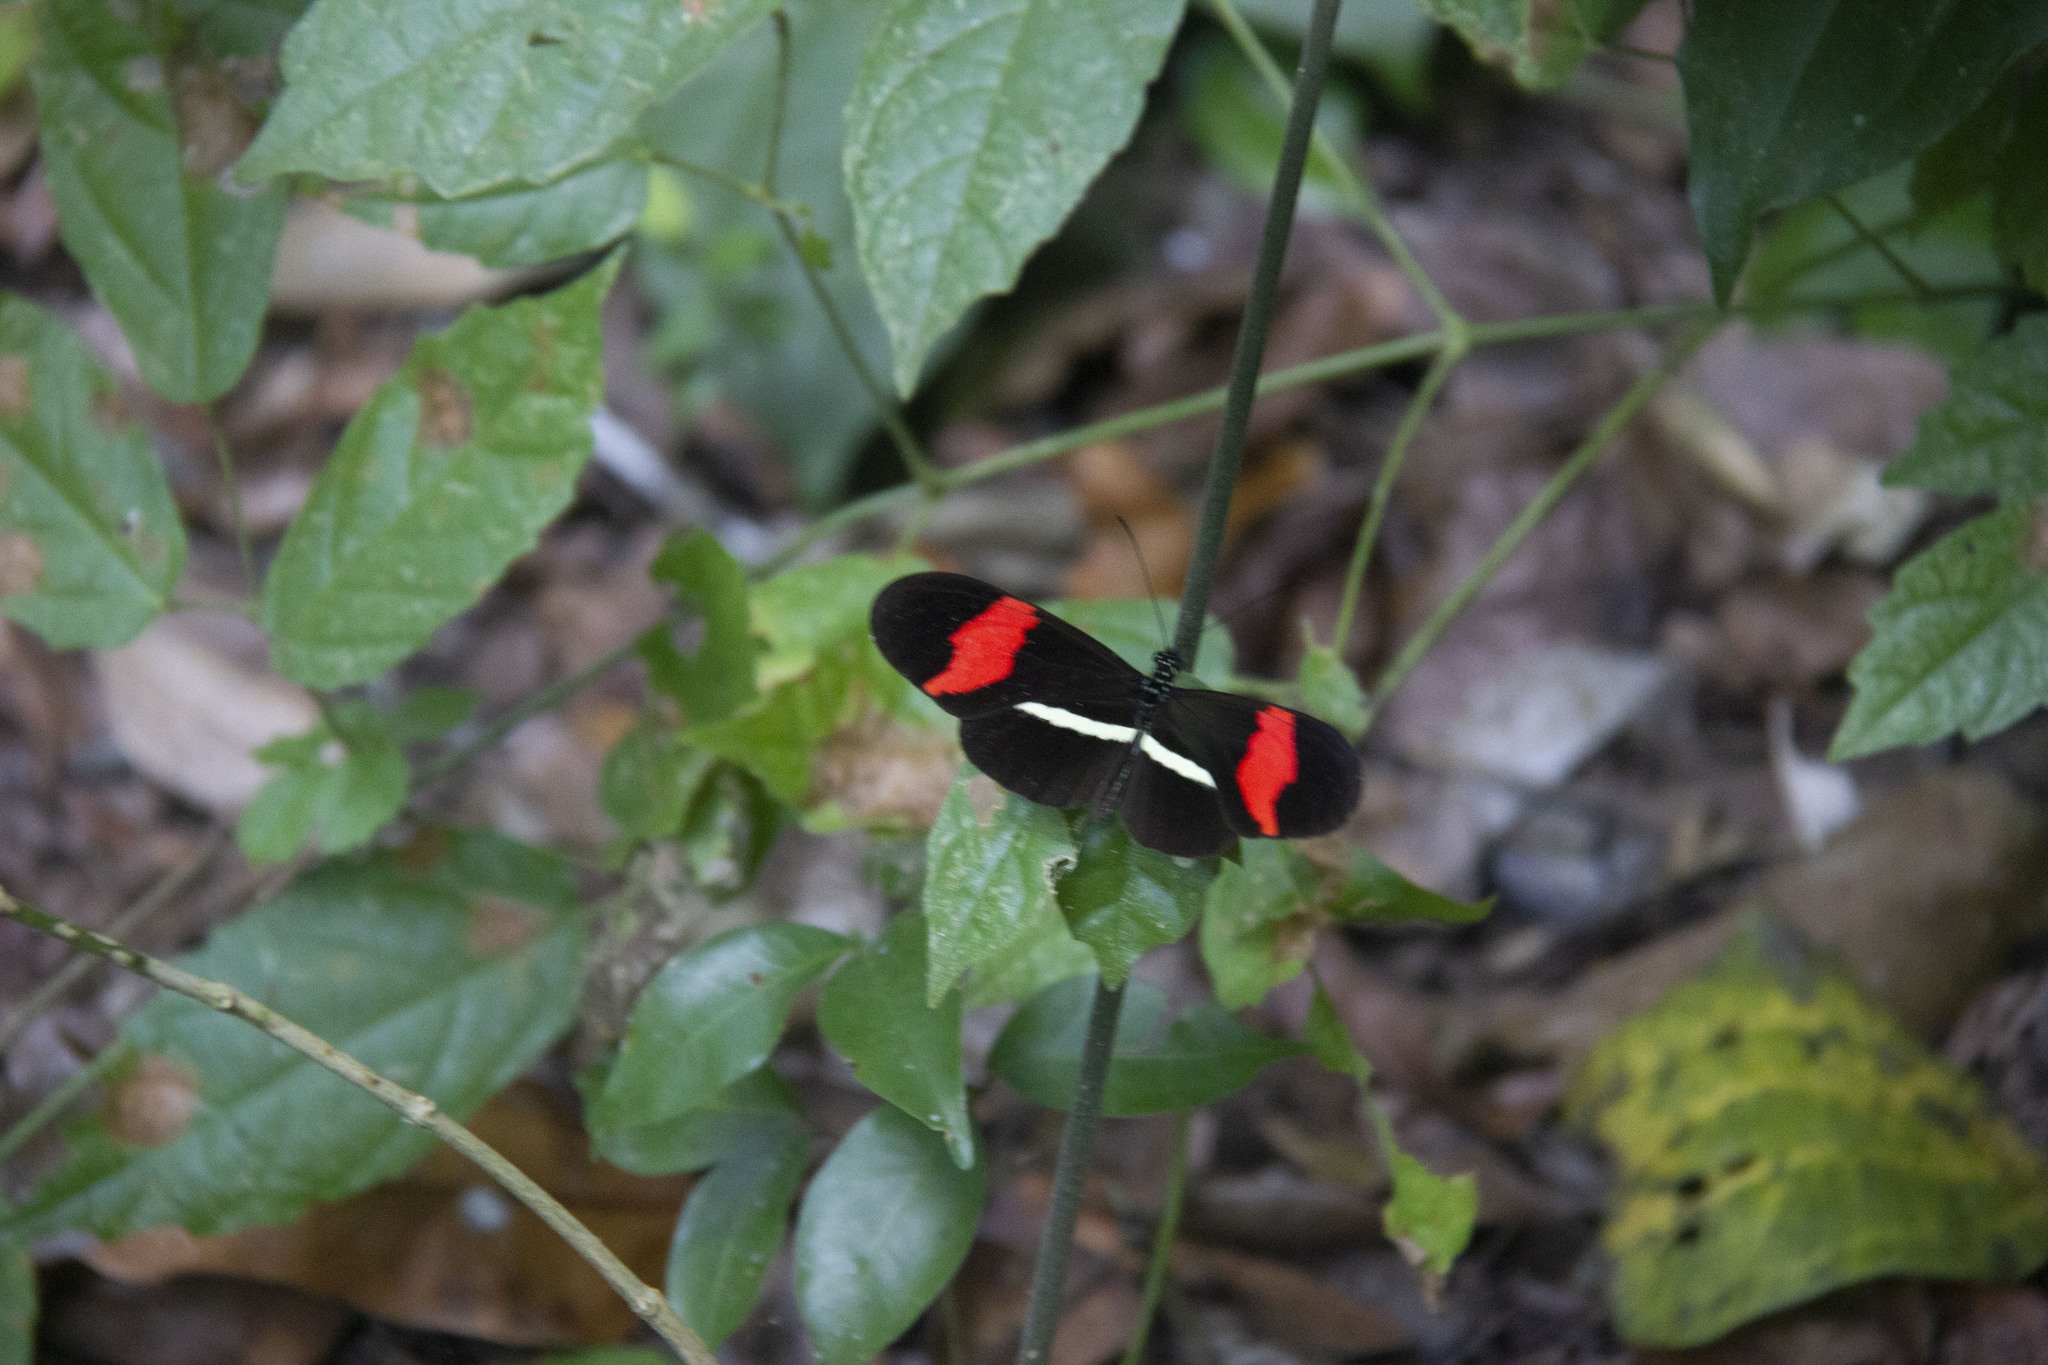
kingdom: Animalia
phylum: Arthropoda
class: Insecta
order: Lepidoptera
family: Nymphalidae
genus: Tirumala
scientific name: Tirumala petiverana
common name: Blue monarch
